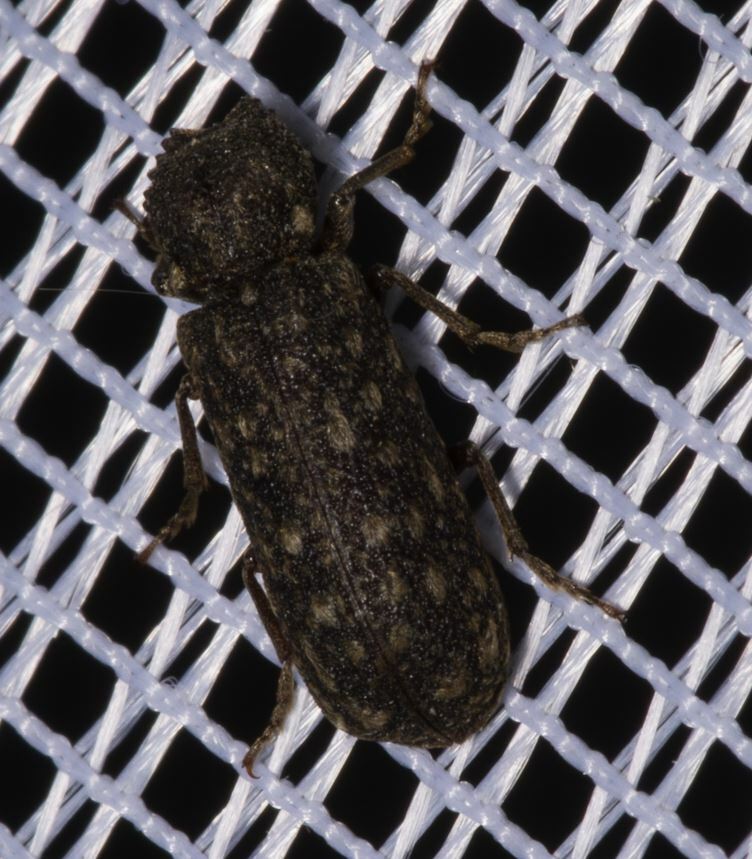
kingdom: Animalia
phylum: Arthropoda
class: Insecta
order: Coleoptera
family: Bostrichidae
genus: Lichenophanes
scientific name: Lichenophanes varius
